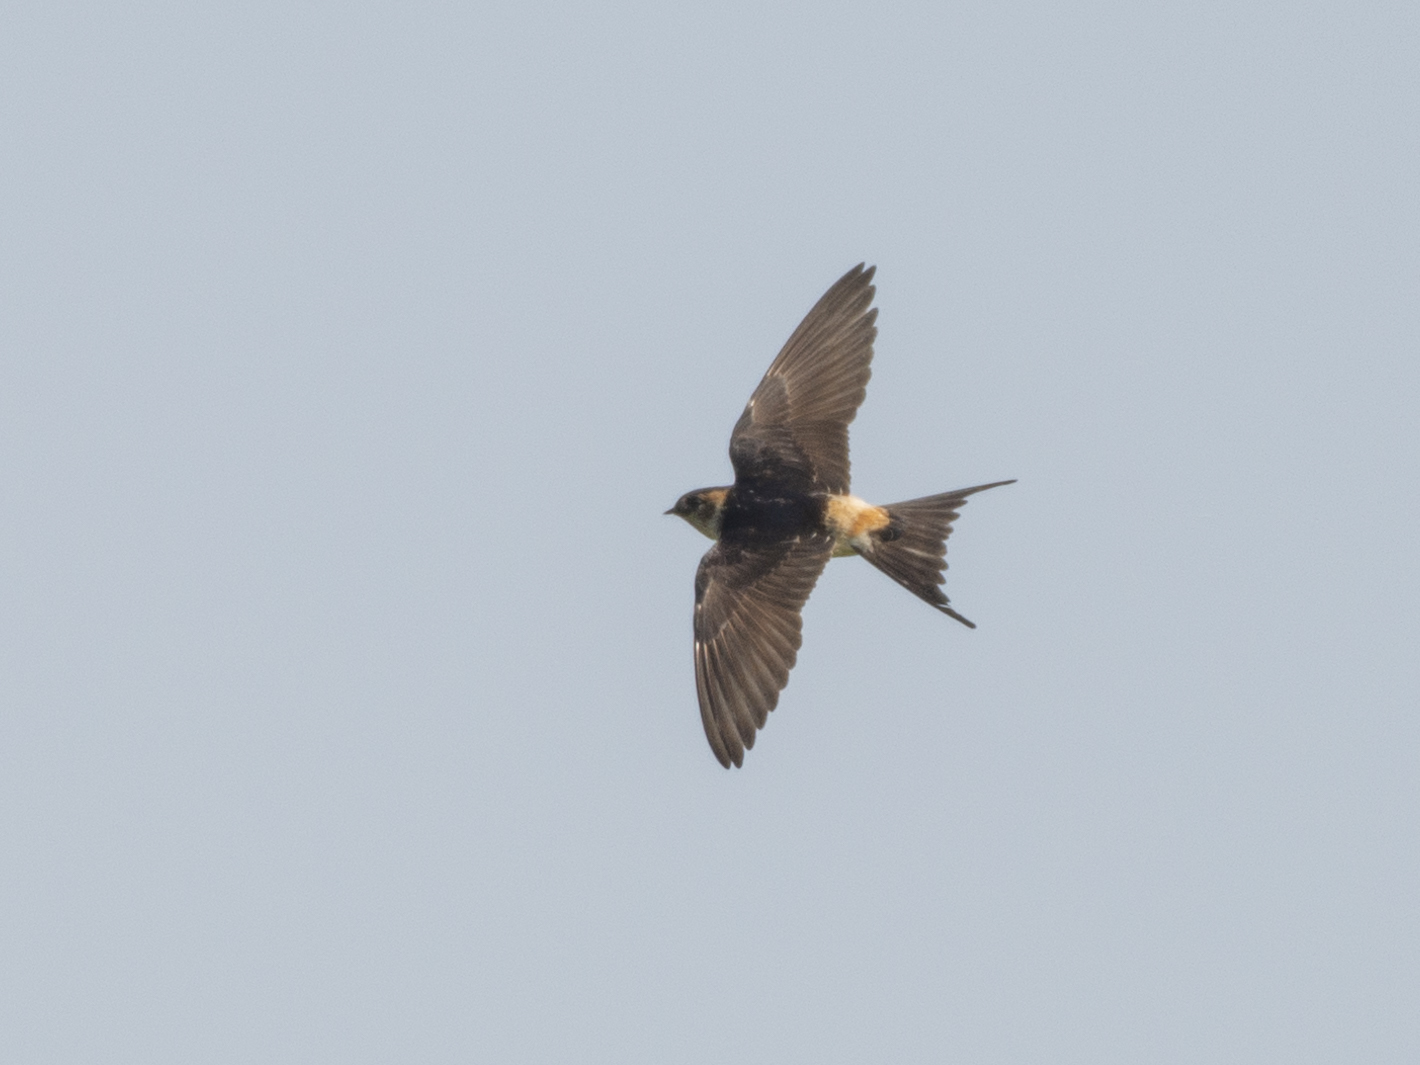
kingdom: Animalia
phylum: Chordata
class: Aves
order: Passeriformes
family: Hirundinidae
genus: Cecropis
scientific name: Cecropis daurica
